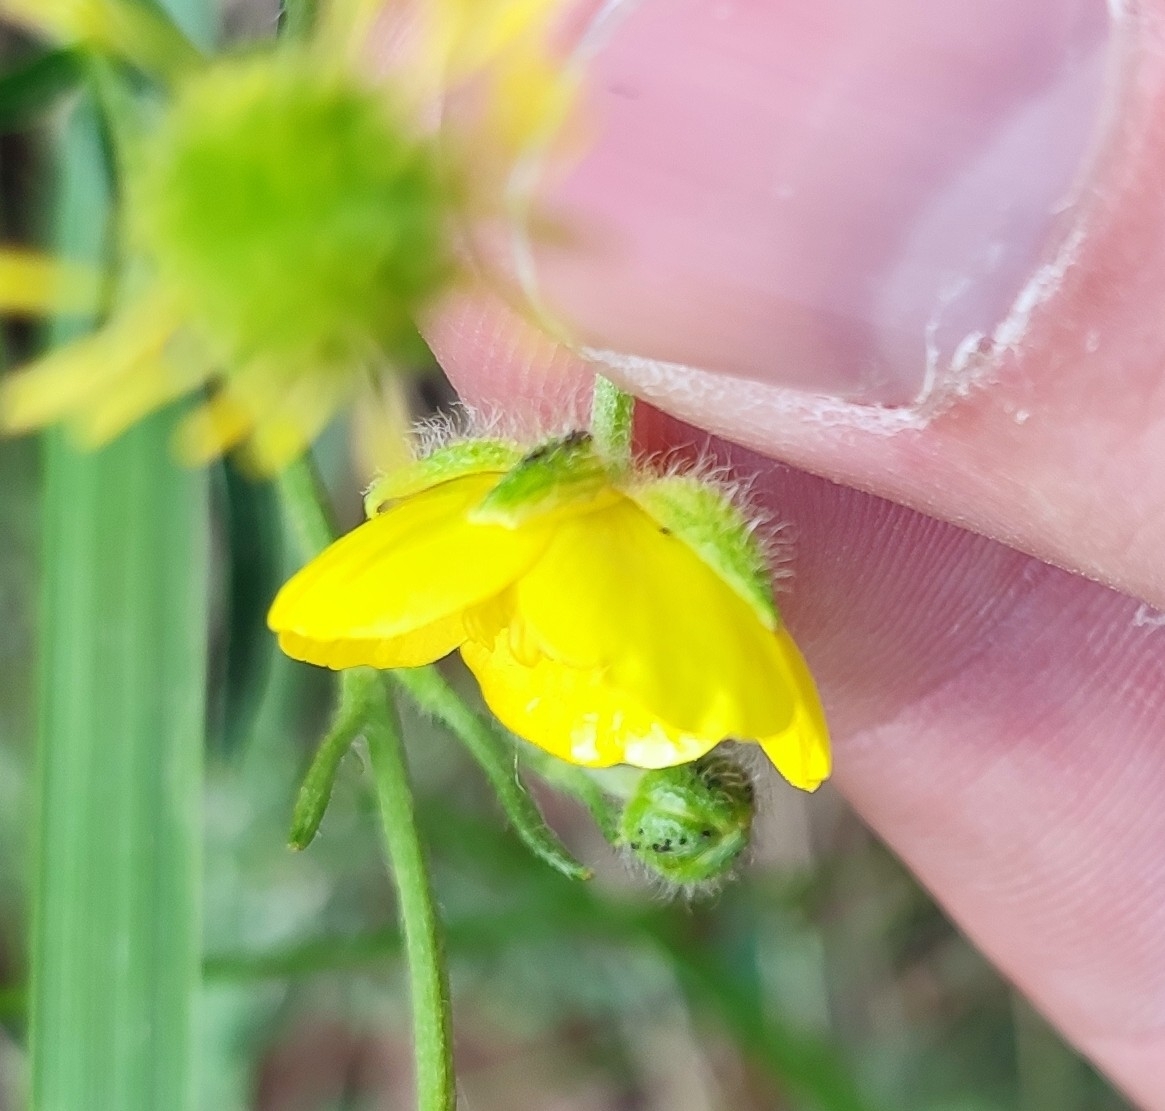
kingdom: Plantae
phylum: Tracheophyta
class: Magnoliopsida
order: Ranunculales
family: Ranunculaceae
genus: Ranunculus
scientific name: Ranunculus polyanthemos
